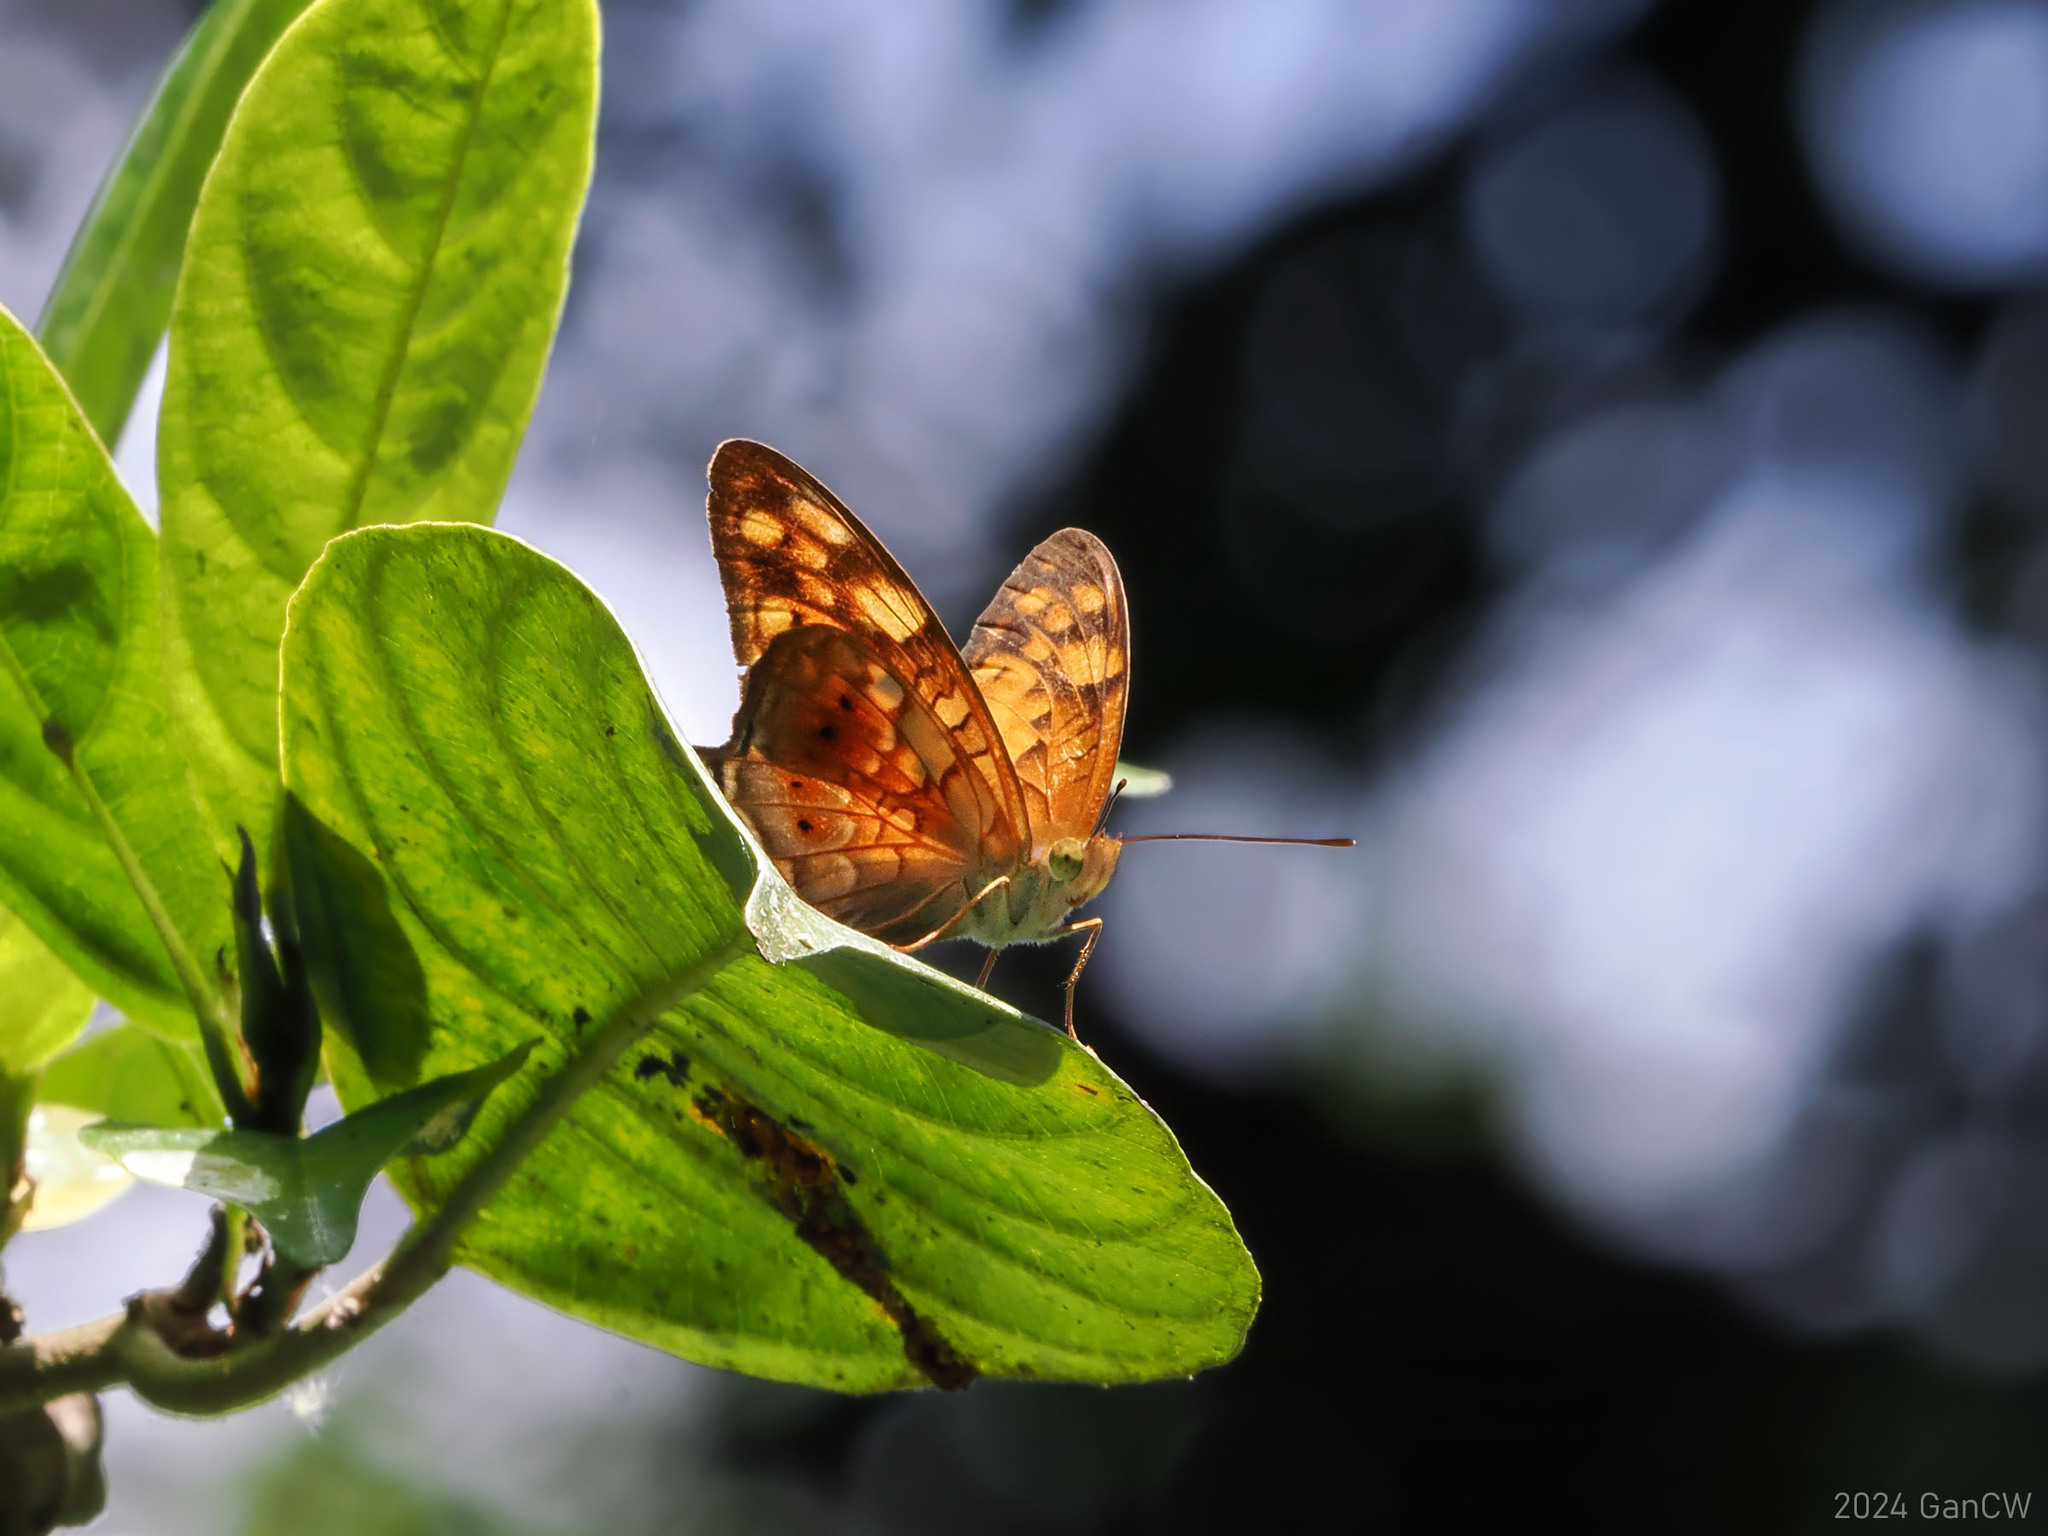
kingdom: Animalia
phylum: Arthropoda
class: Insecta
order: Lepidoptera
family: Nymphalidae
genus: Vagrans
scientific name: Vagrans sinha
